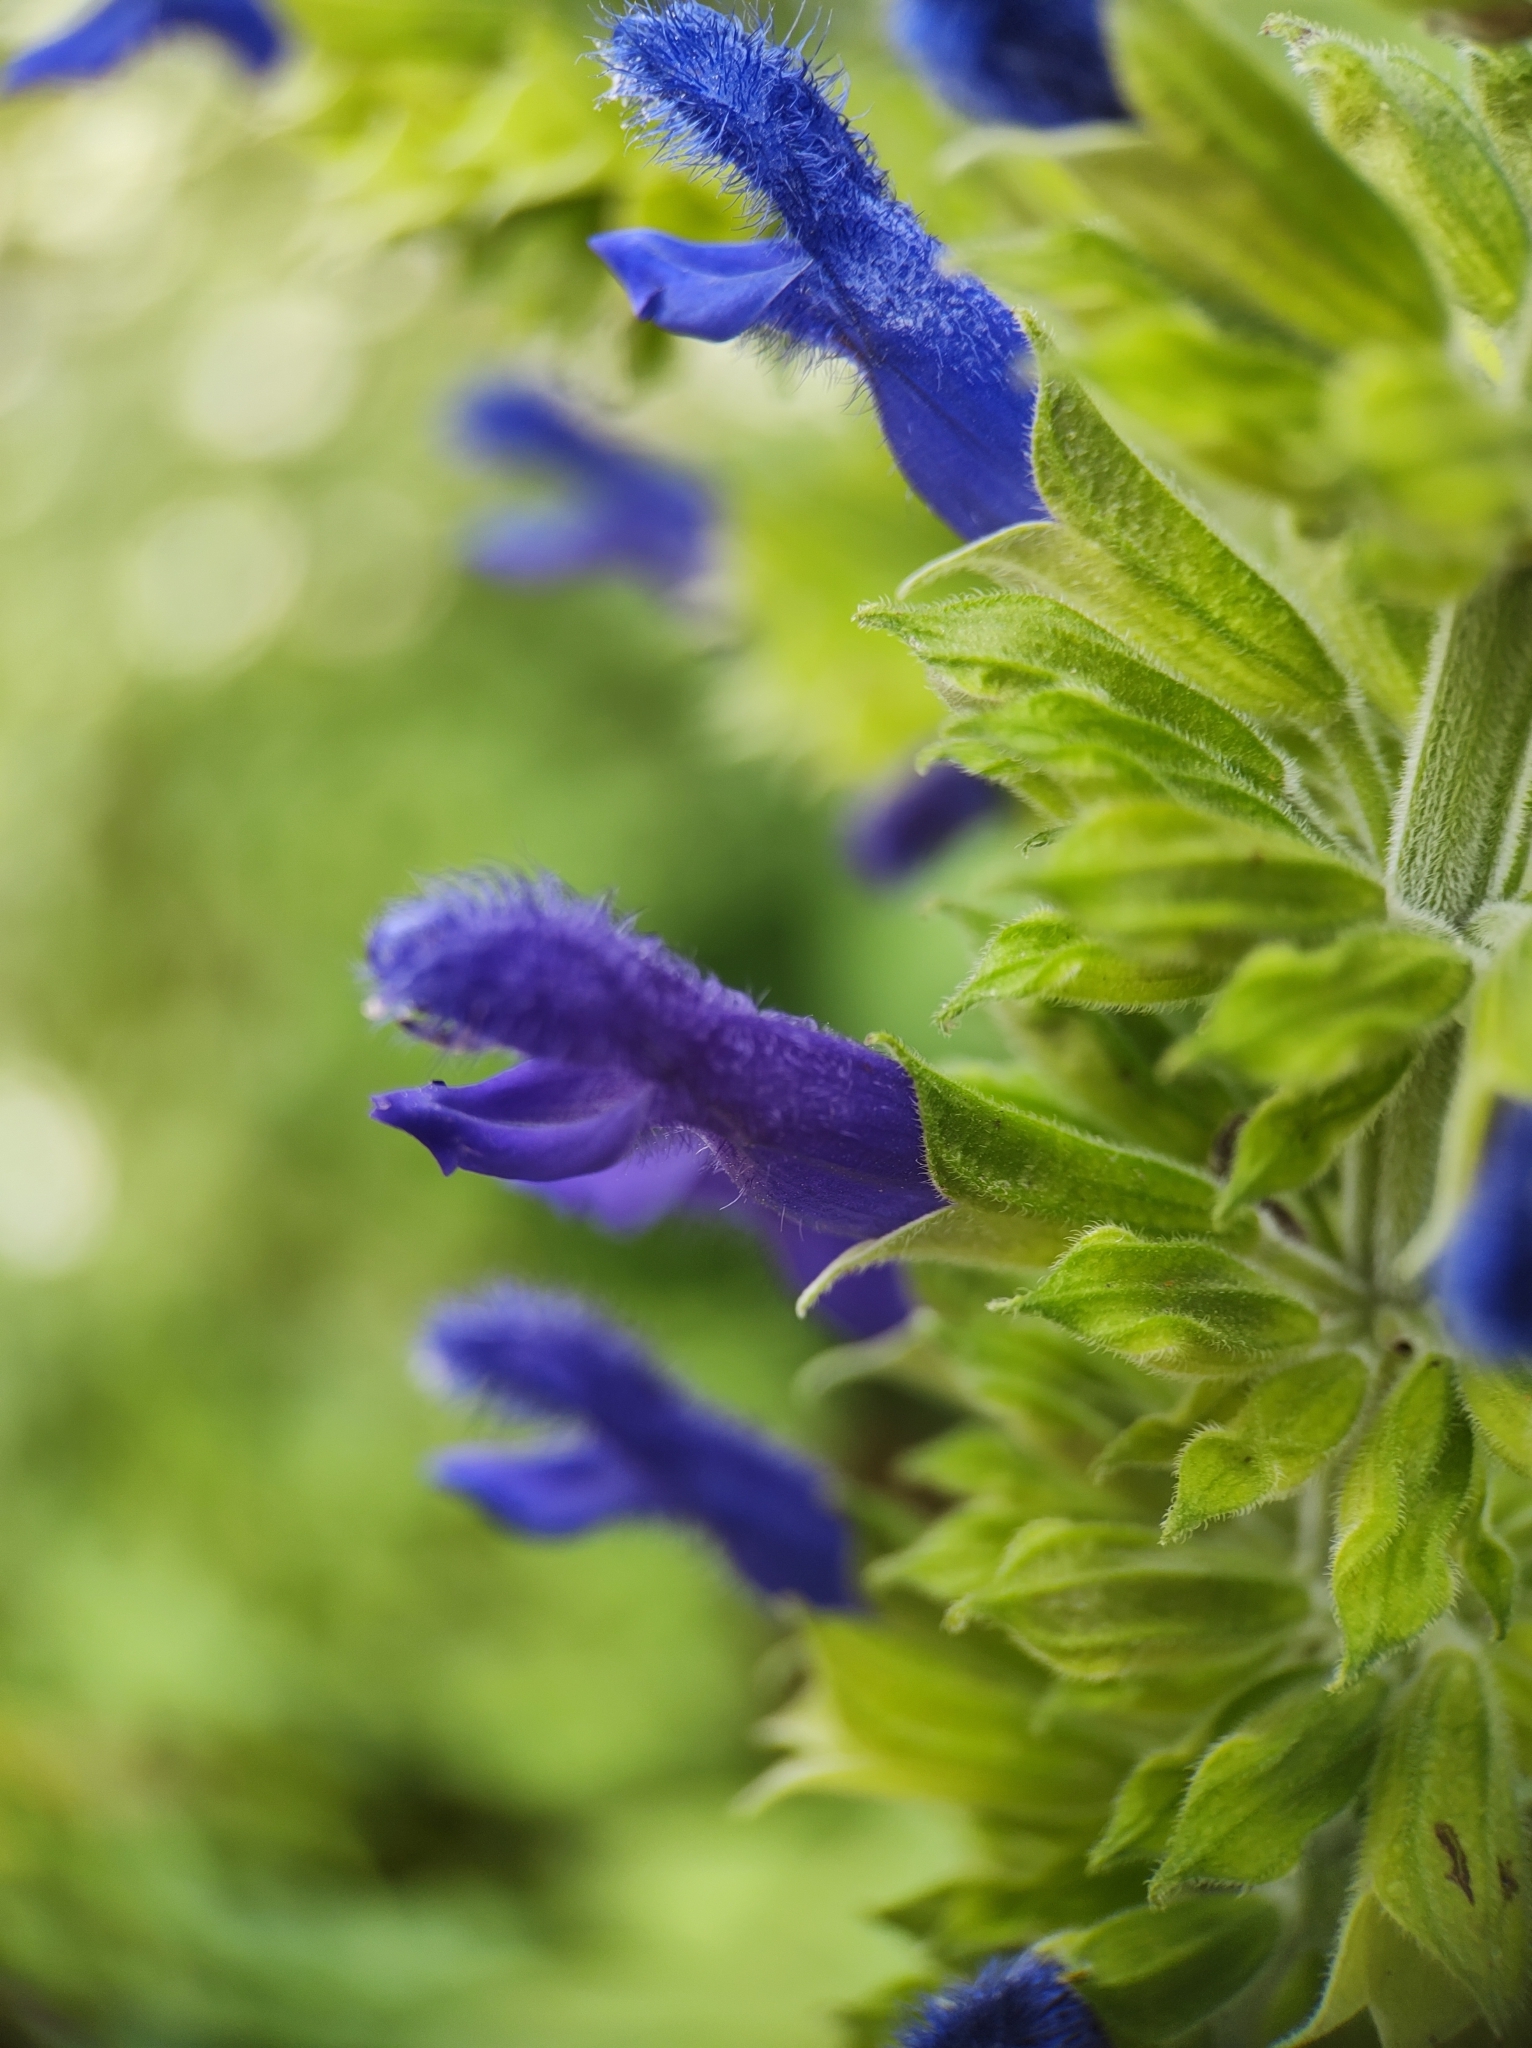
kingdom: Plantae
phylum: Tracheophyta
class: Magnoliopsida
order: Lamiales
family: Lamiaceae
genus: Salvia
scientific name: Salvia mexicana
